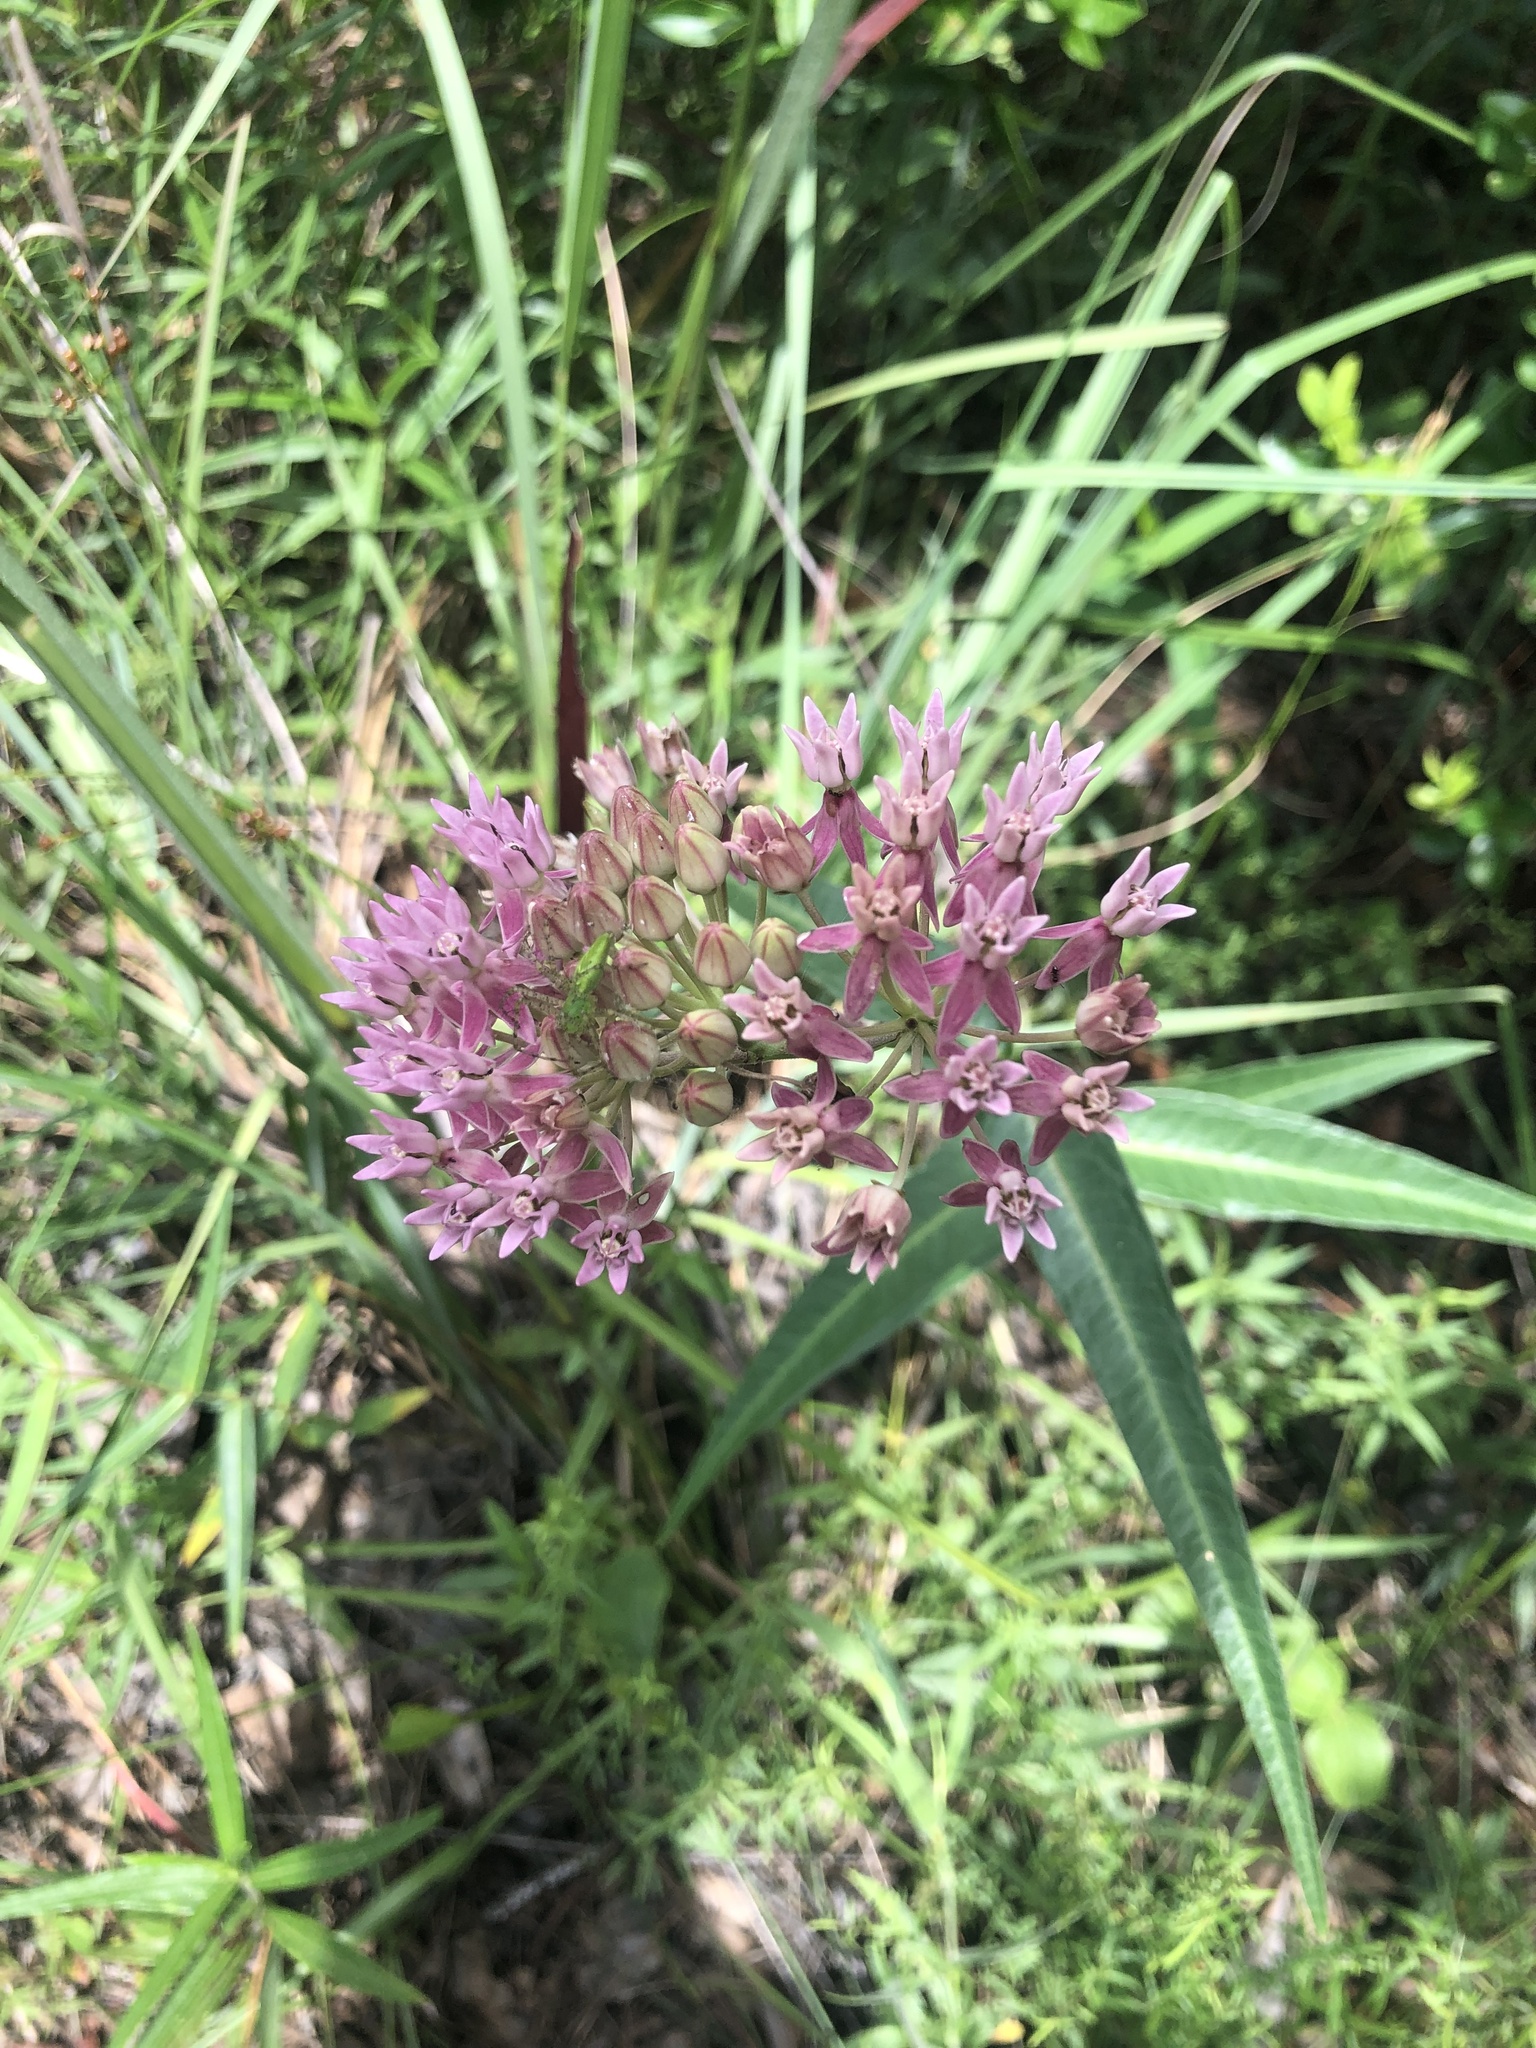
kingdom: Plantae
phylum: Tracheophyta
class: Magnoliopsida
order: Gentianales
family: Apocynaceae
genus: Asclepias
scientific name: Asclepias rubra
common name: Red milkweed
